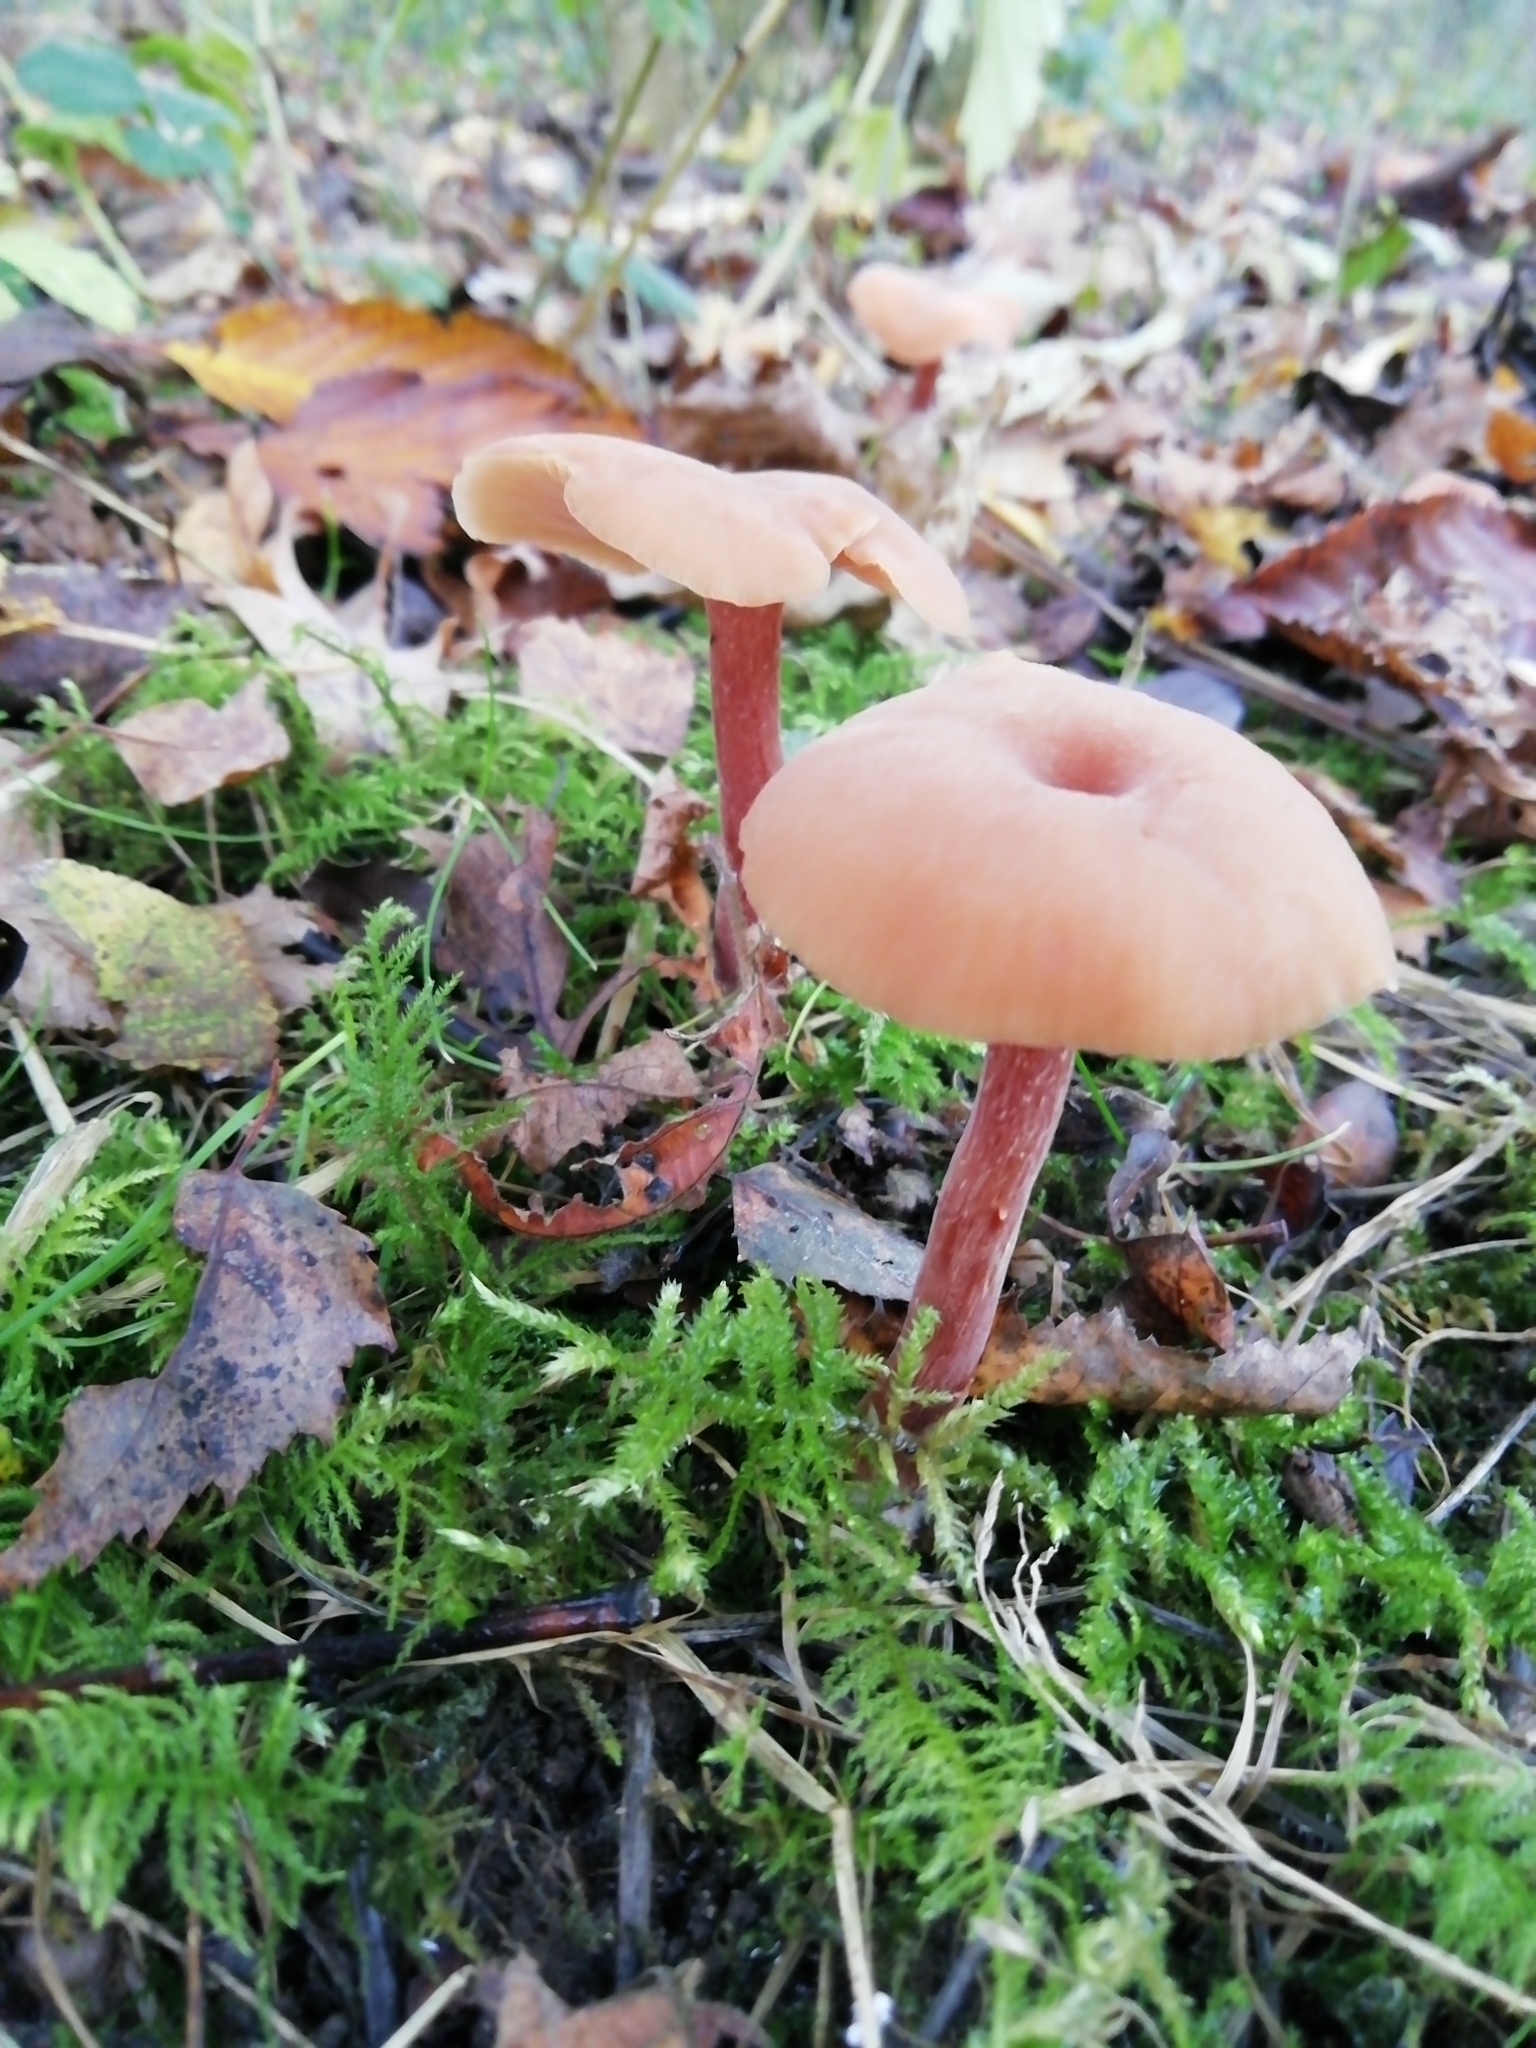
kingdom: Fungi
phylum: Basidiomycota
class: Agaricomycetes
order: Agaricales
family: Hydnangiaceae
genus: Laccaria
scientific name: Laccaria laccata
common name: Deceiver
